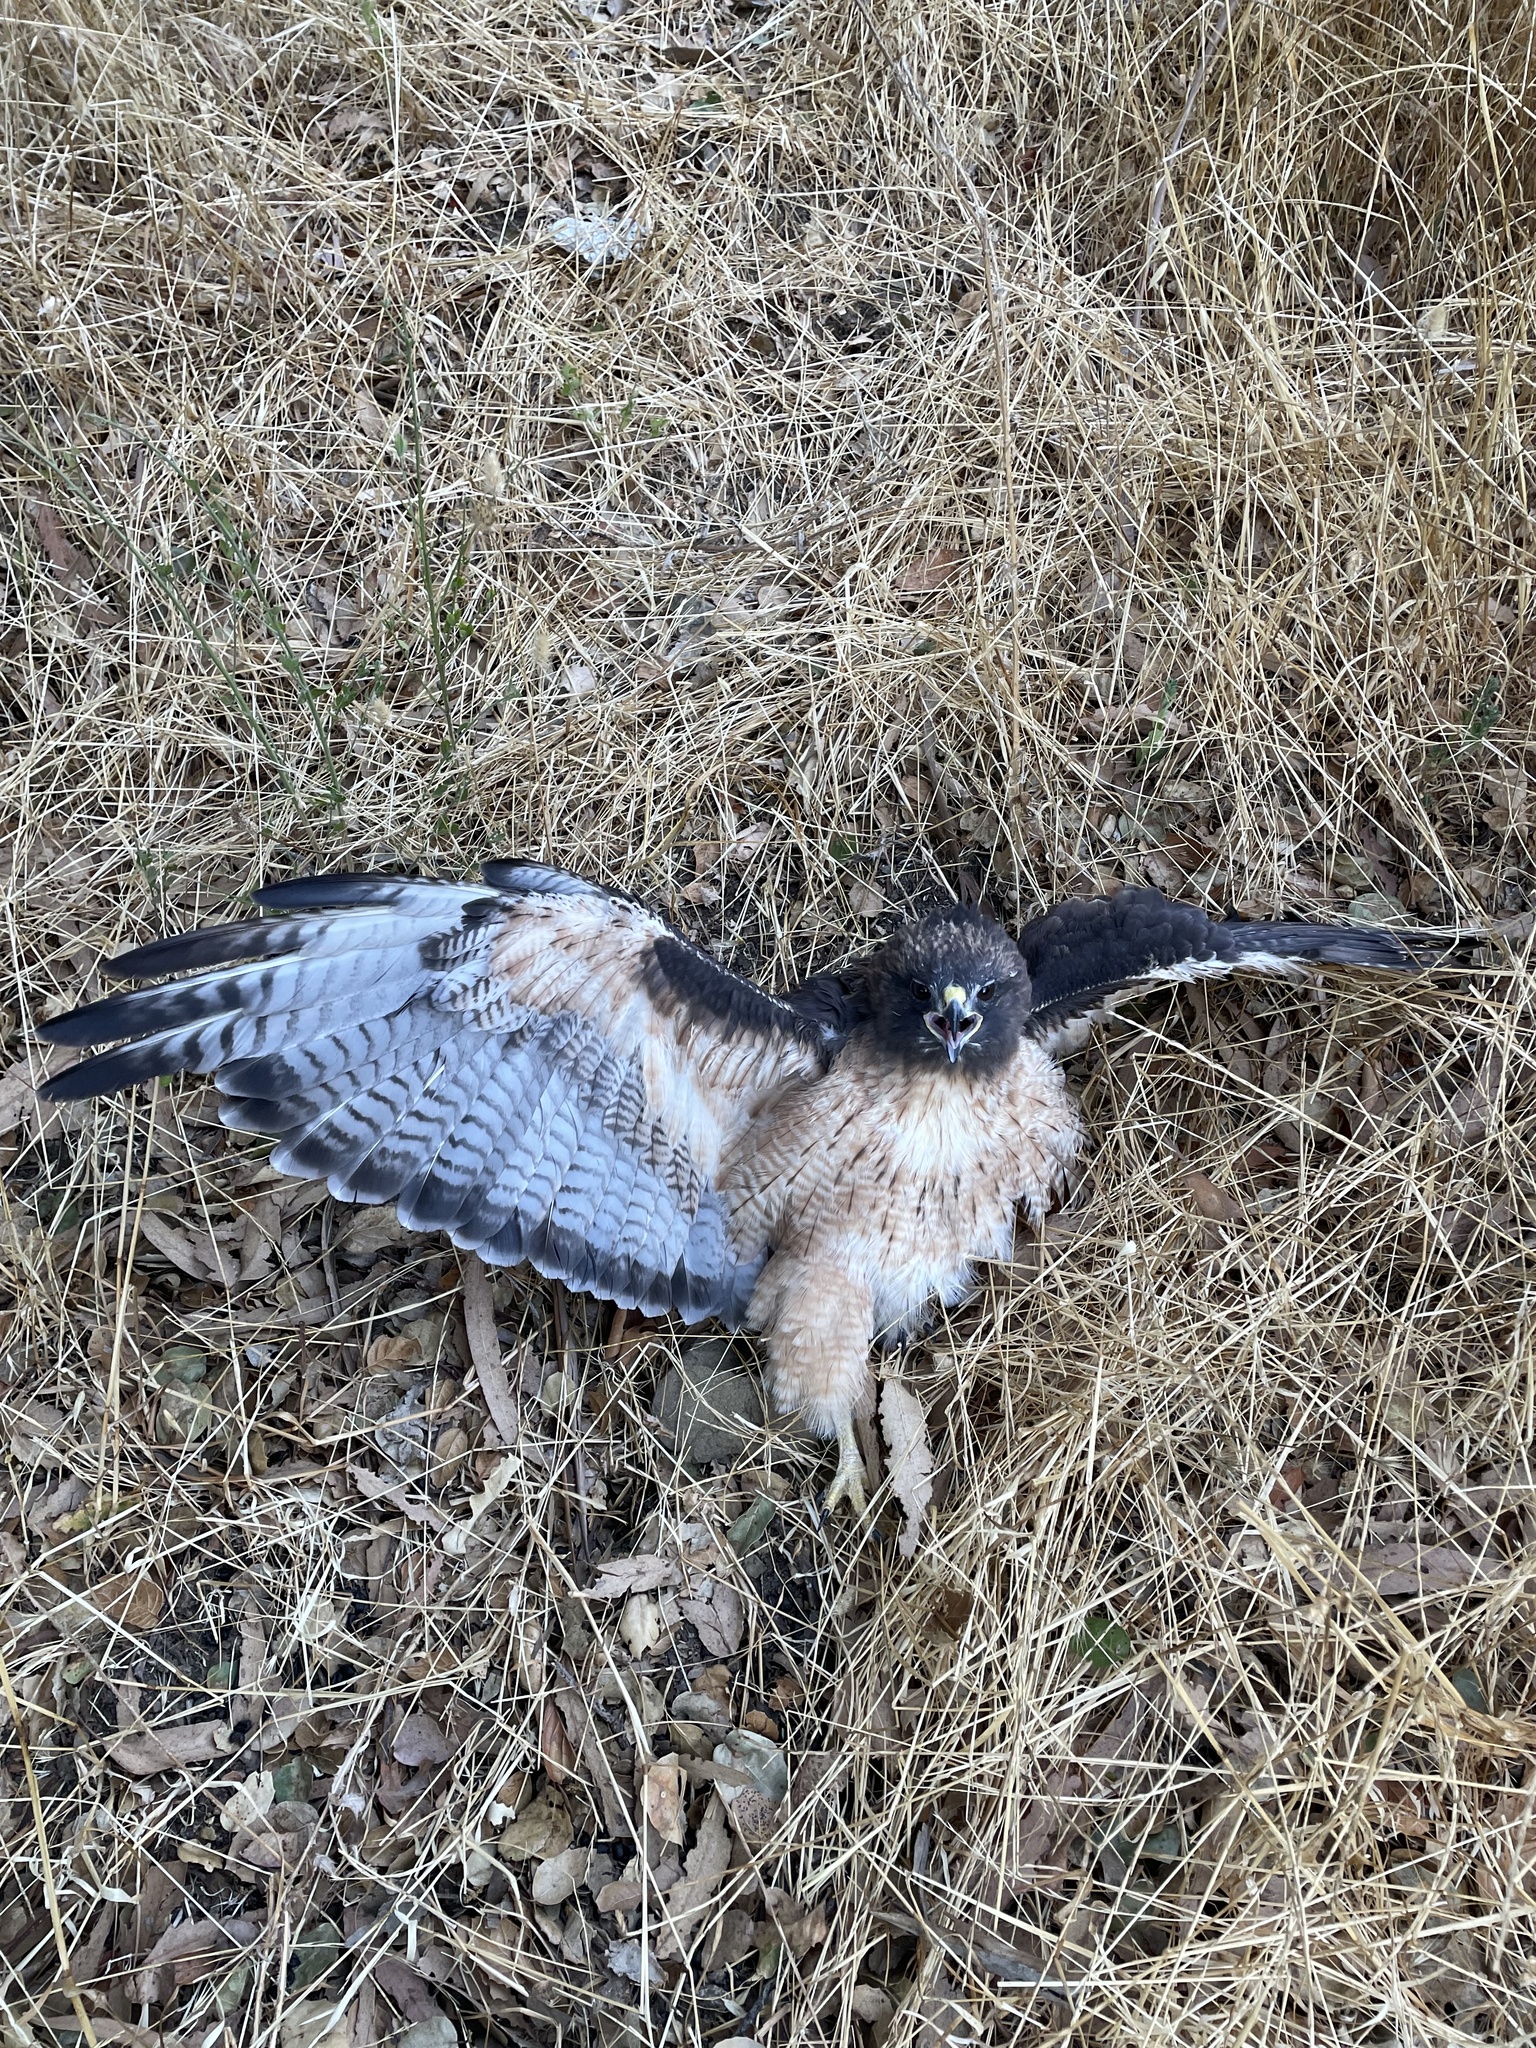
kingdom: Animalia
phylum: Chordata
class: Aves
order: Accipitriformes
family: Accipitridae
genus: Buteo
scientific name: Buteo jamaicensis
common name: Red-tailed hawk
